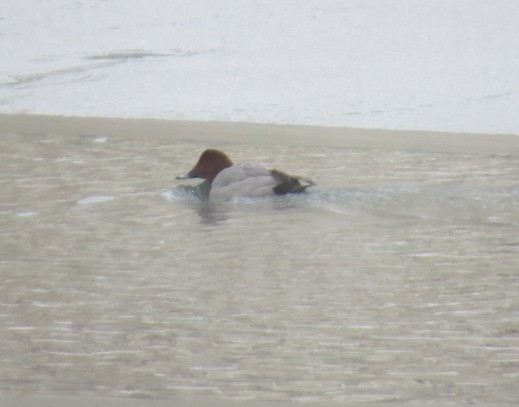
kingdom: Animalia
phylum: Chordata
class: Aves
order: Anseriformes
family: Anatidae
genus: Aythya
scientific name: Aythya ferina
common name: Common pochard
